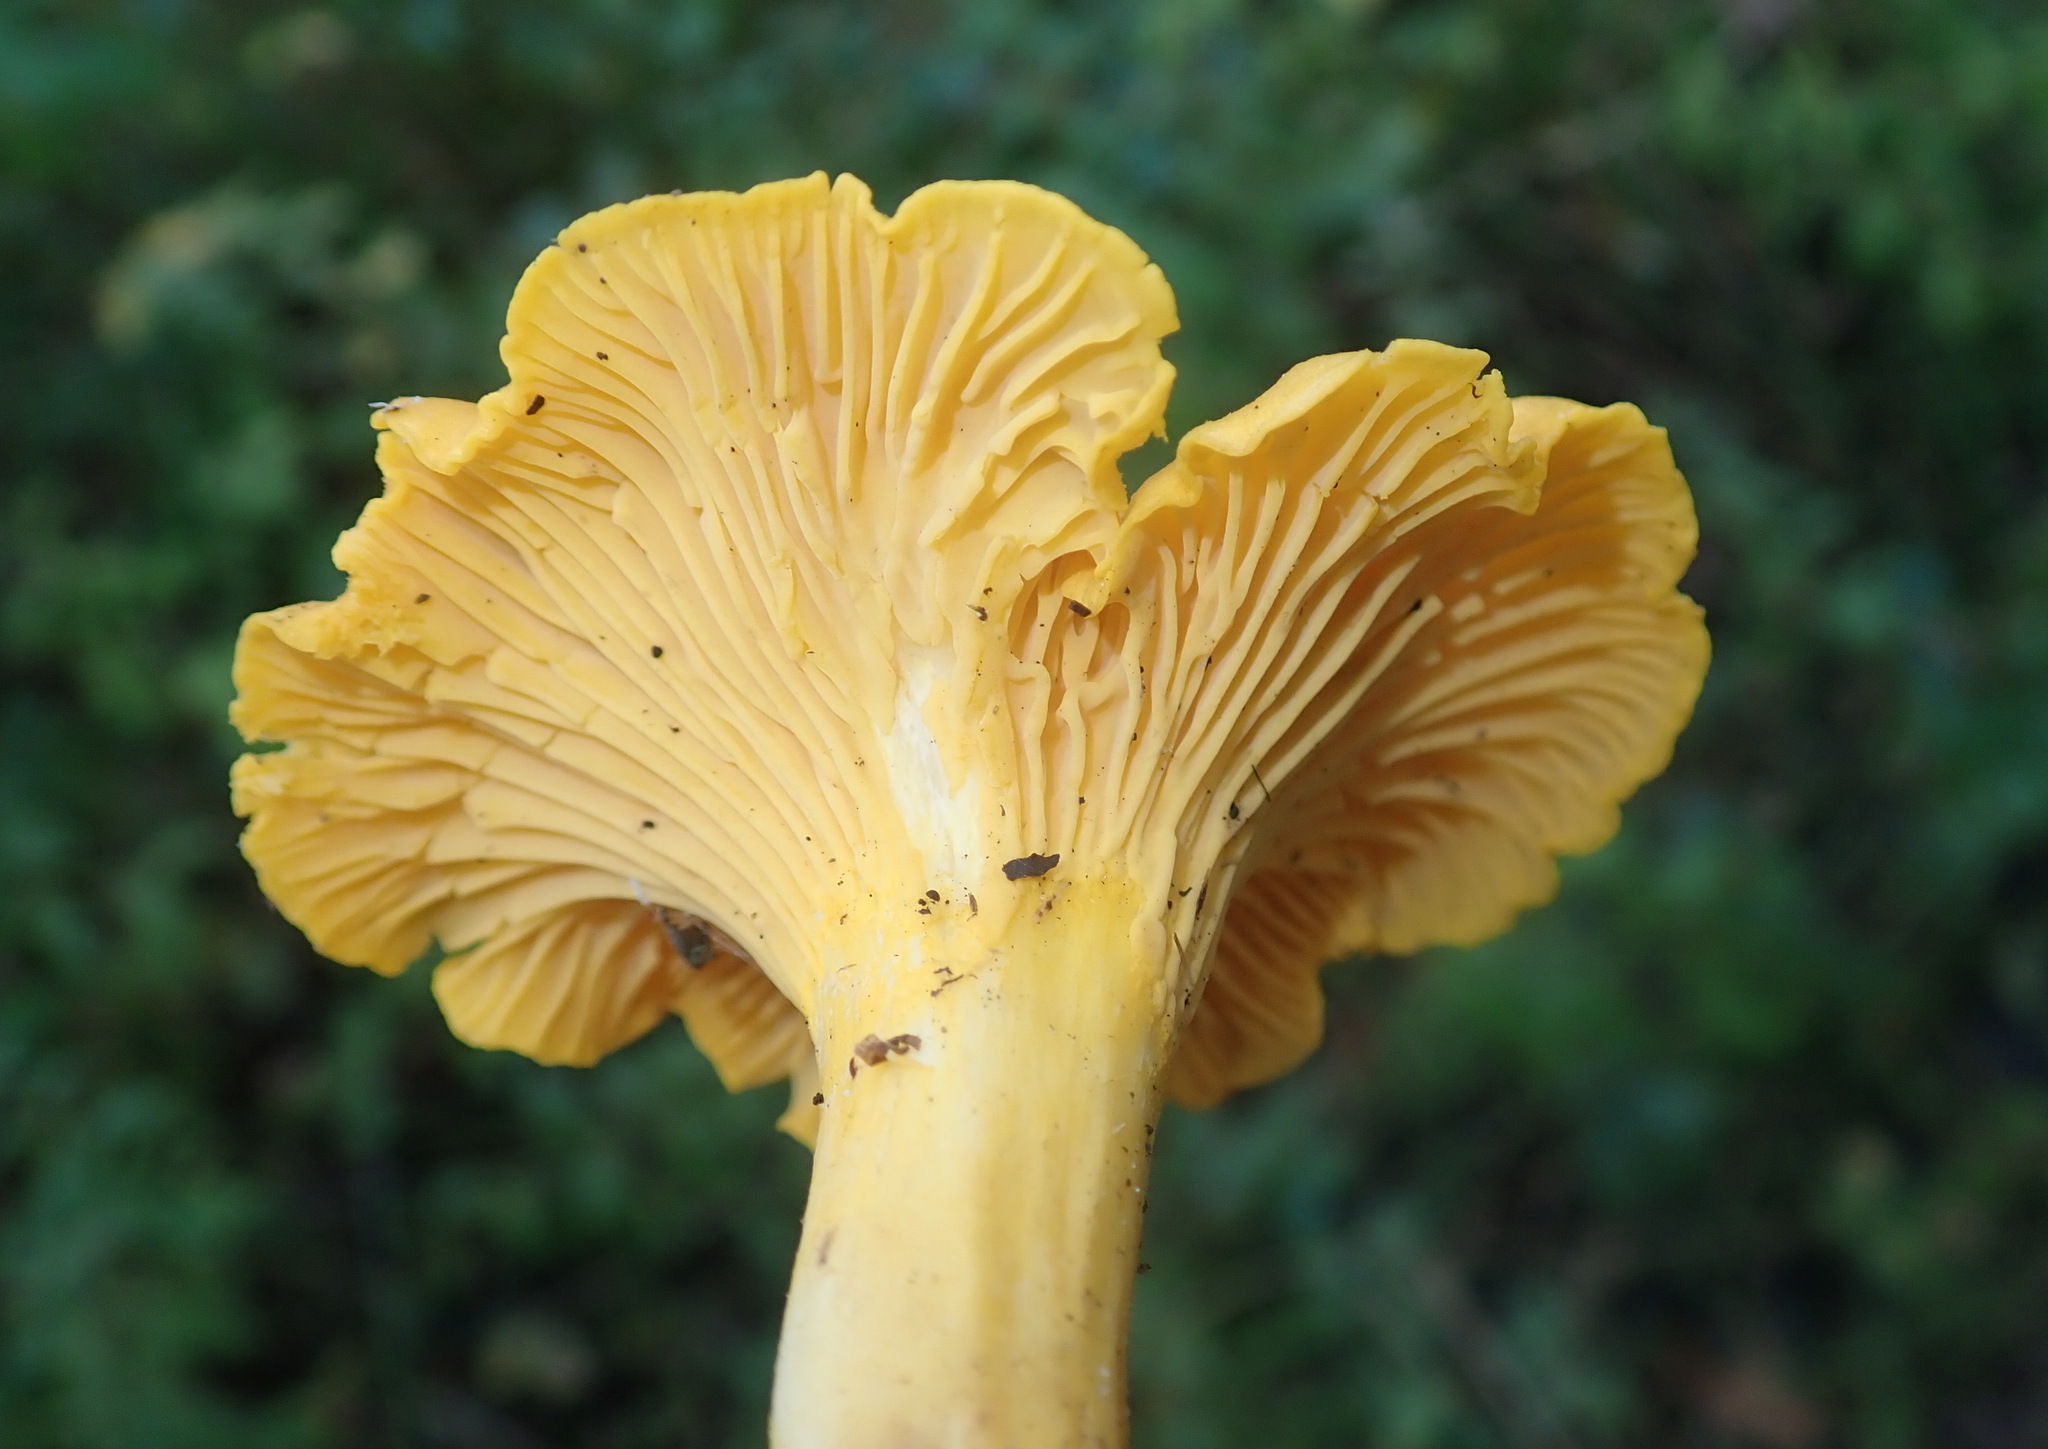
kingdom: Fungi
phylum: Basidiomycota
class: Agaricomycetes
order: Cantharellales
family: Hydnaceae
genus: Cantharellus
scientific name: Cantharellus cibarius
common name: Chanterelle
